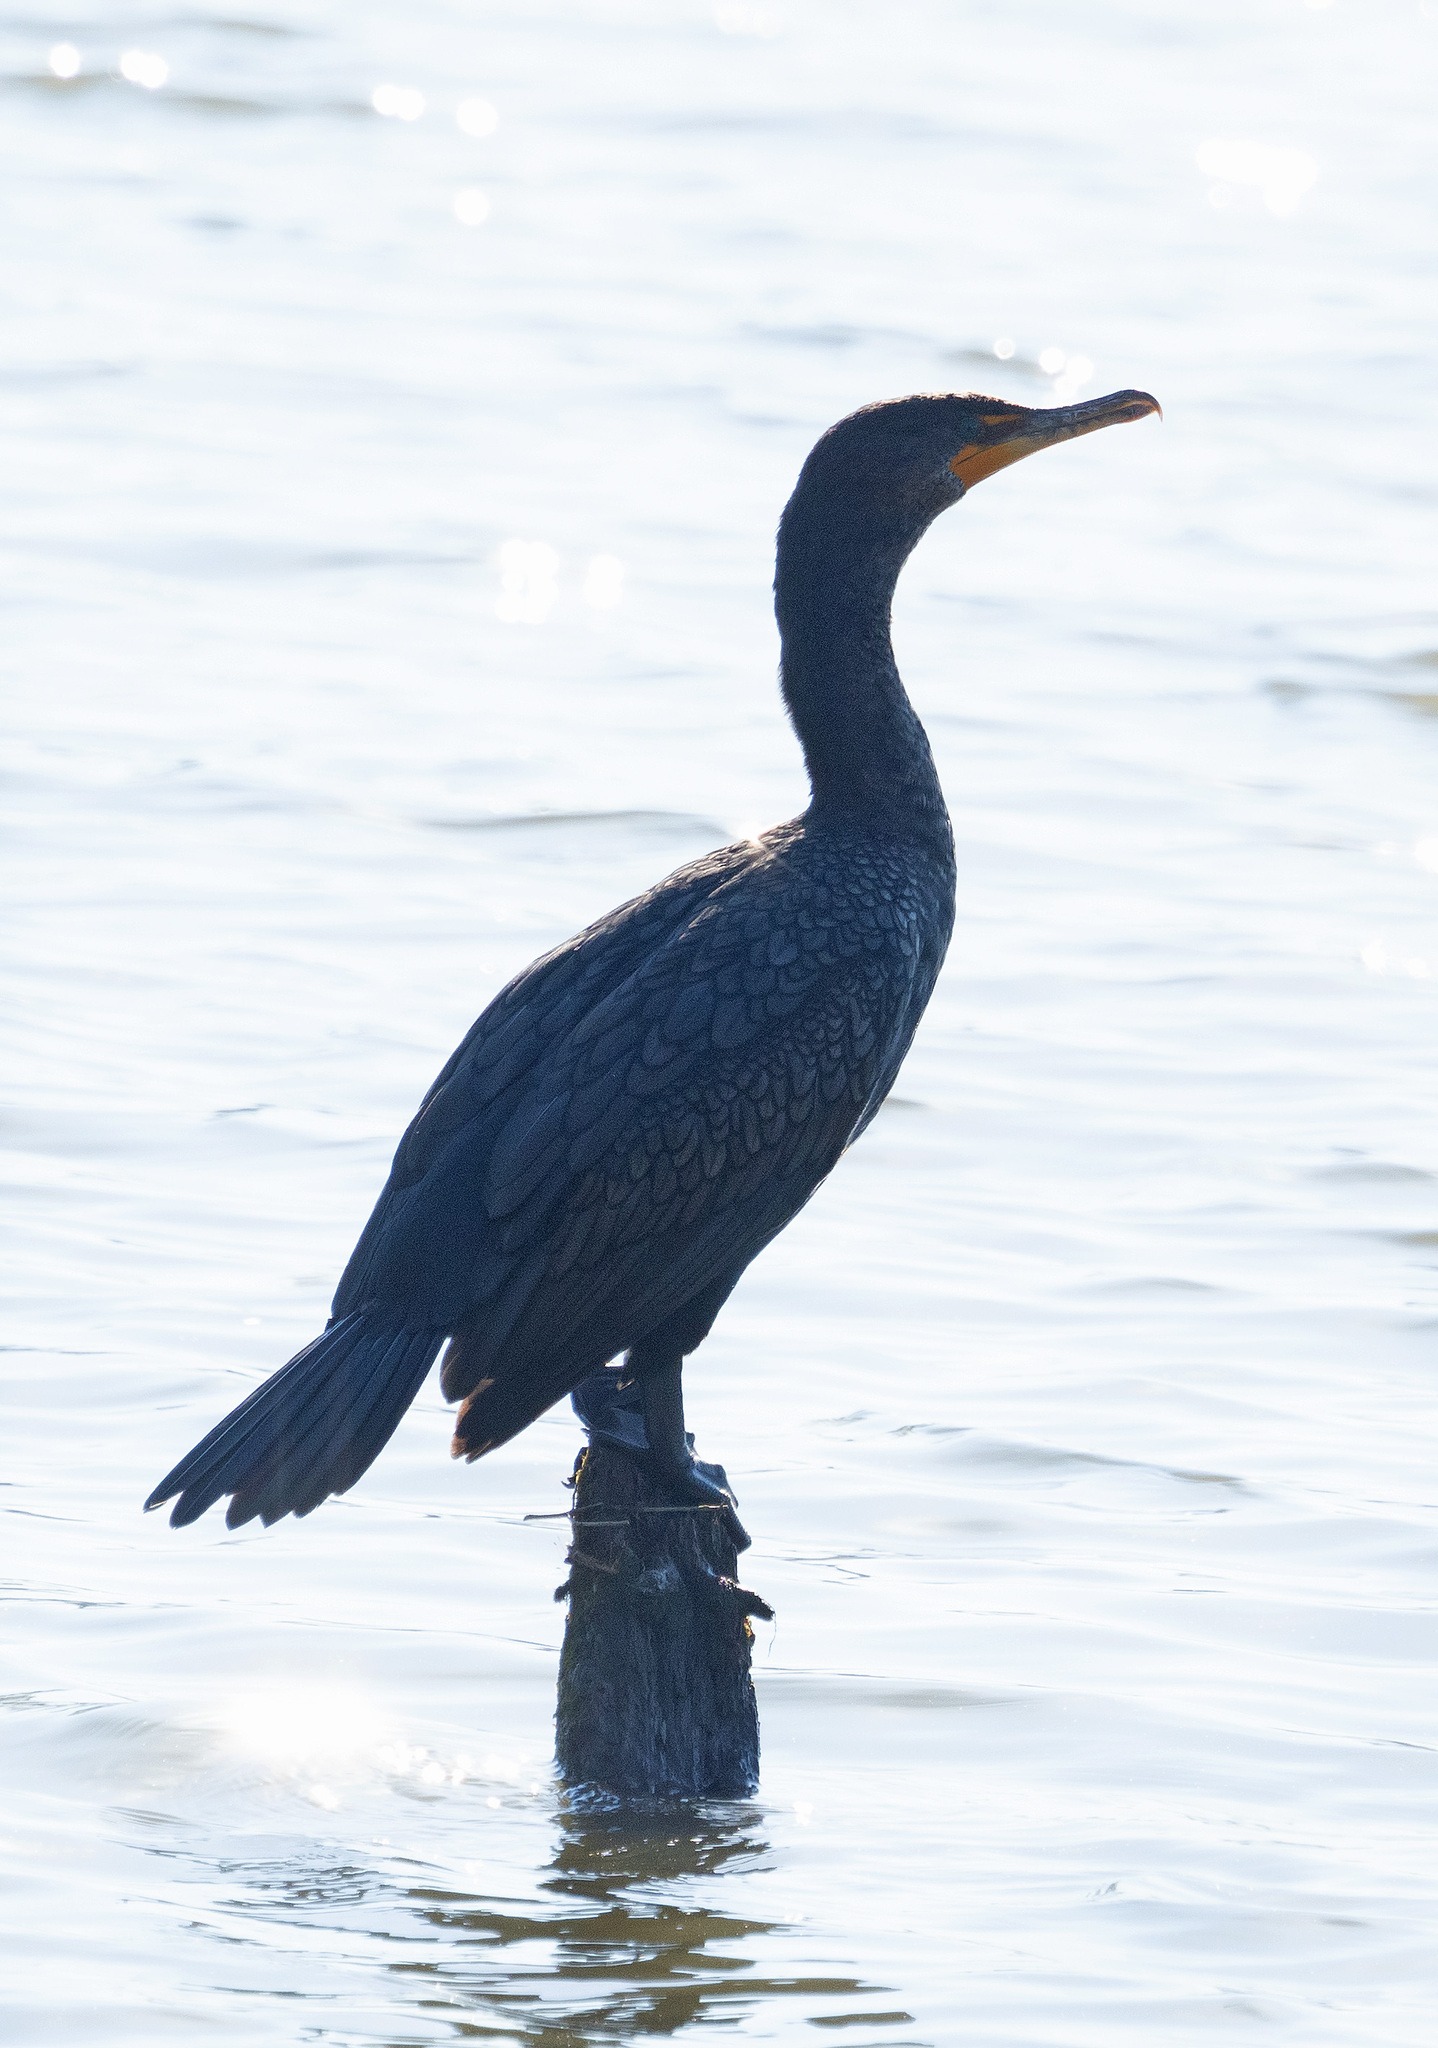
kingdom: Animalia
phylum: Chordata
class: Aves
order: Suliformes
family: Phalacrocoracidae
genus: Phalacrocorax
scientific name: Phalacrocorax auritus
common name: Double-crested cormorant
